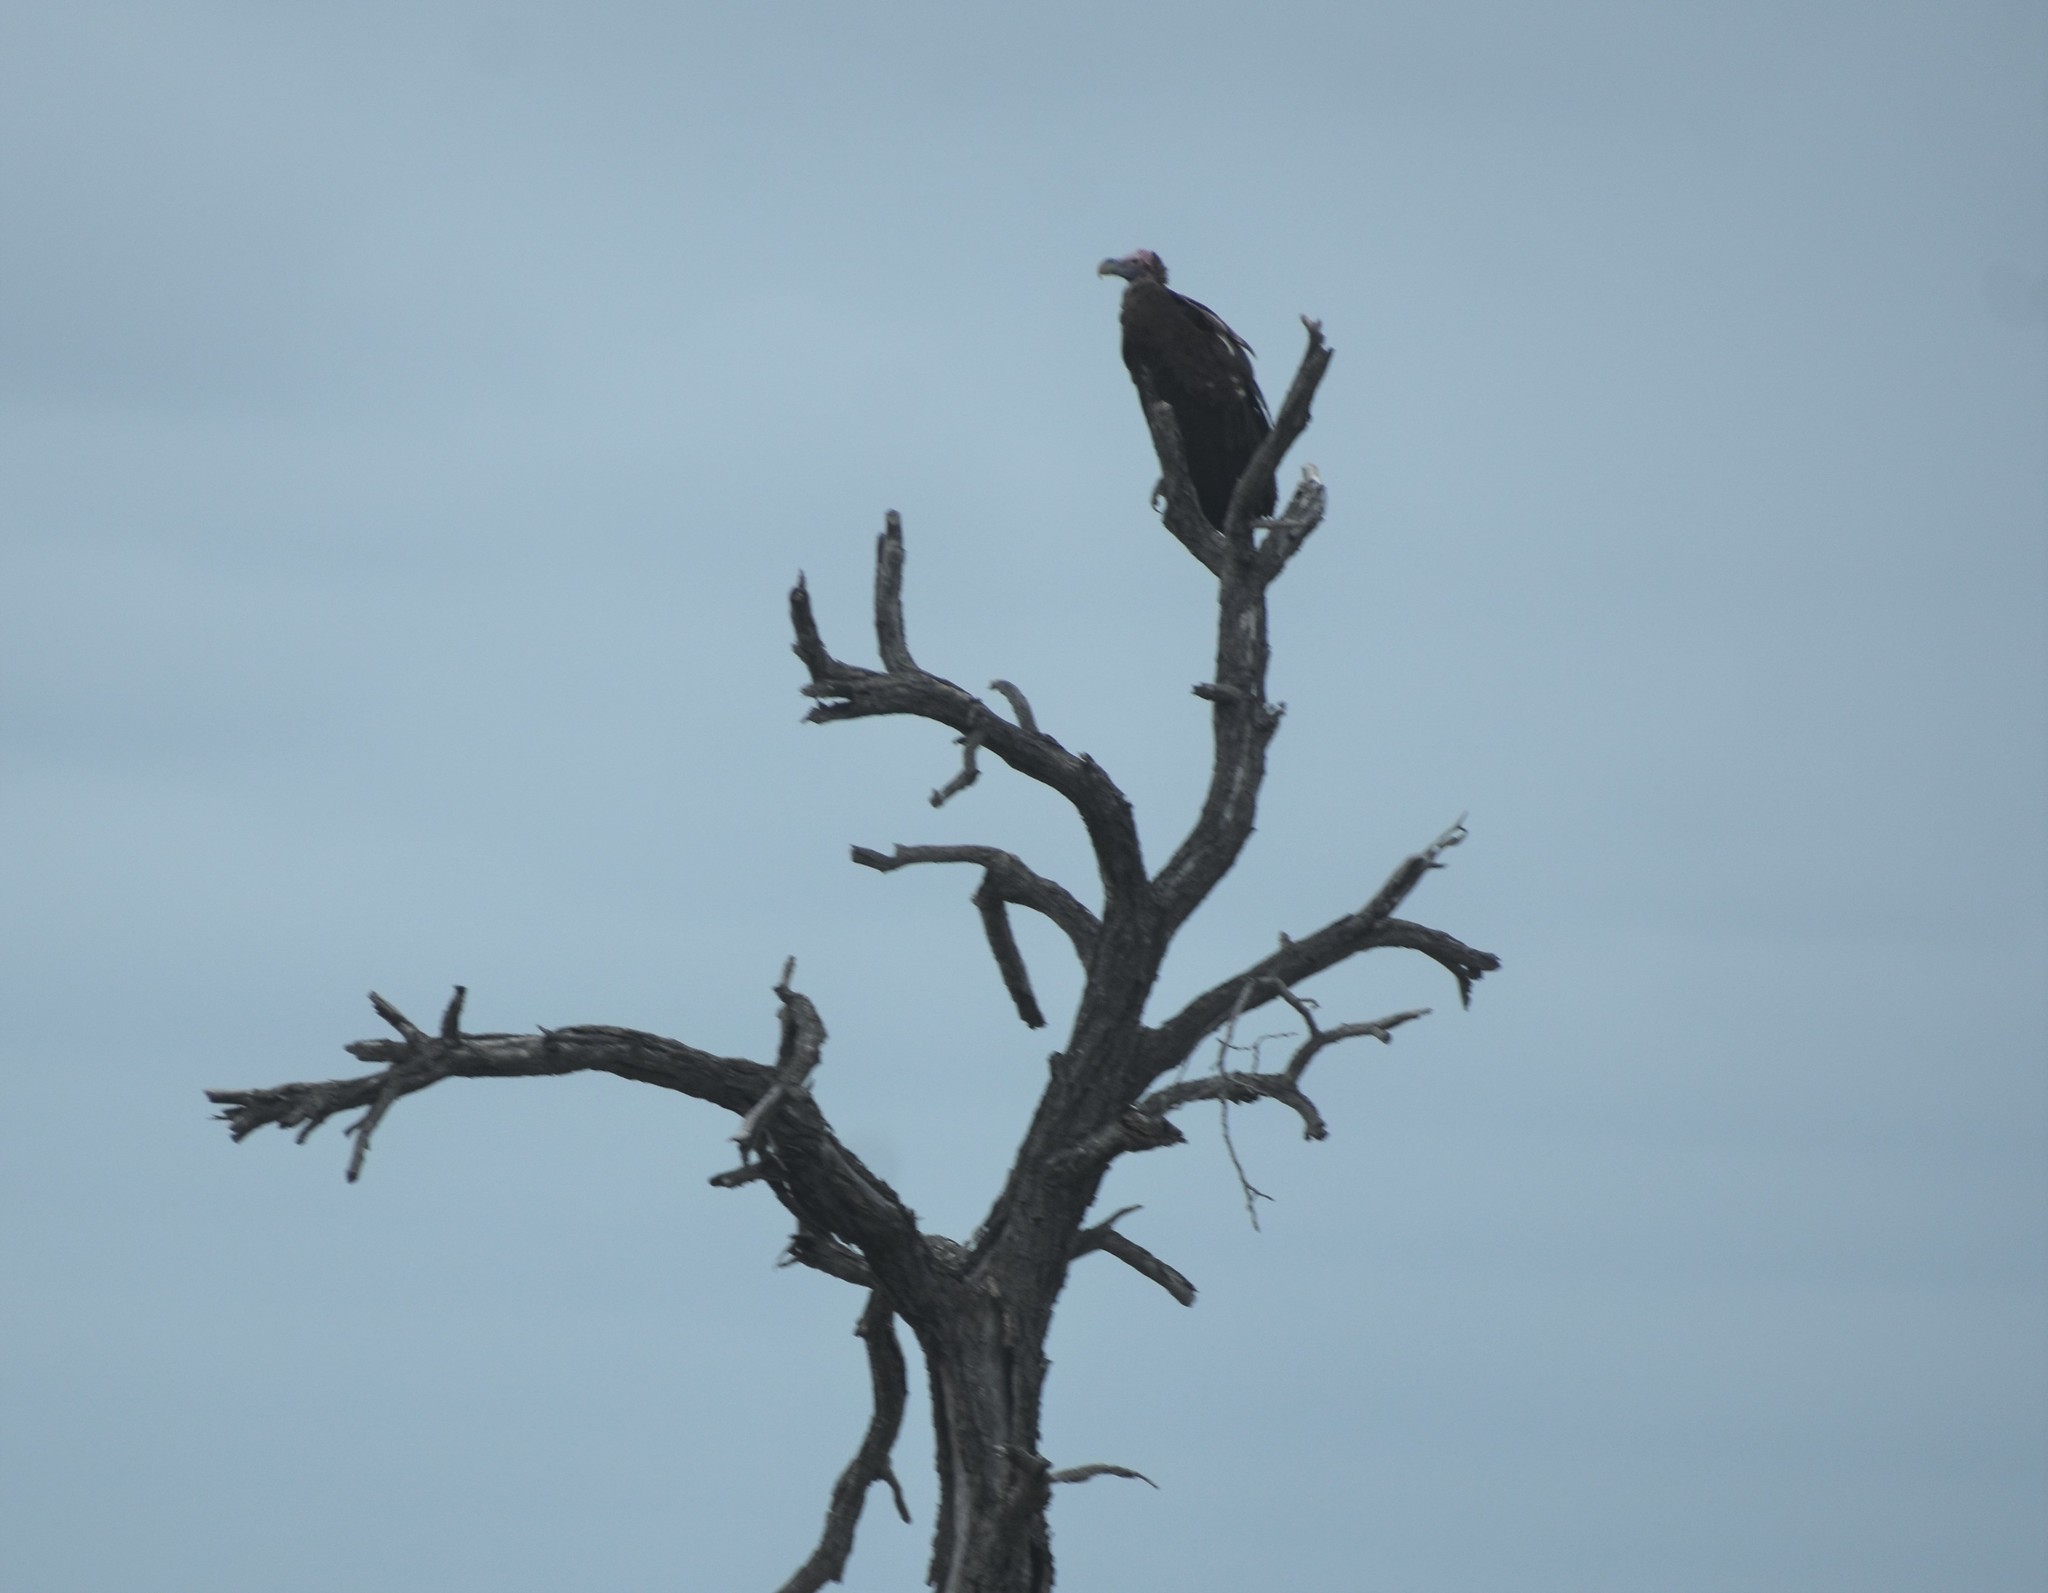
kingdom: Animalia
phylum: Chordata
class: Aves
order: Accipitriformes
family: Accipitridae
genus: Torgos
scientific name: Torgos tracheliotos
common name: Lappet-faced vulture
